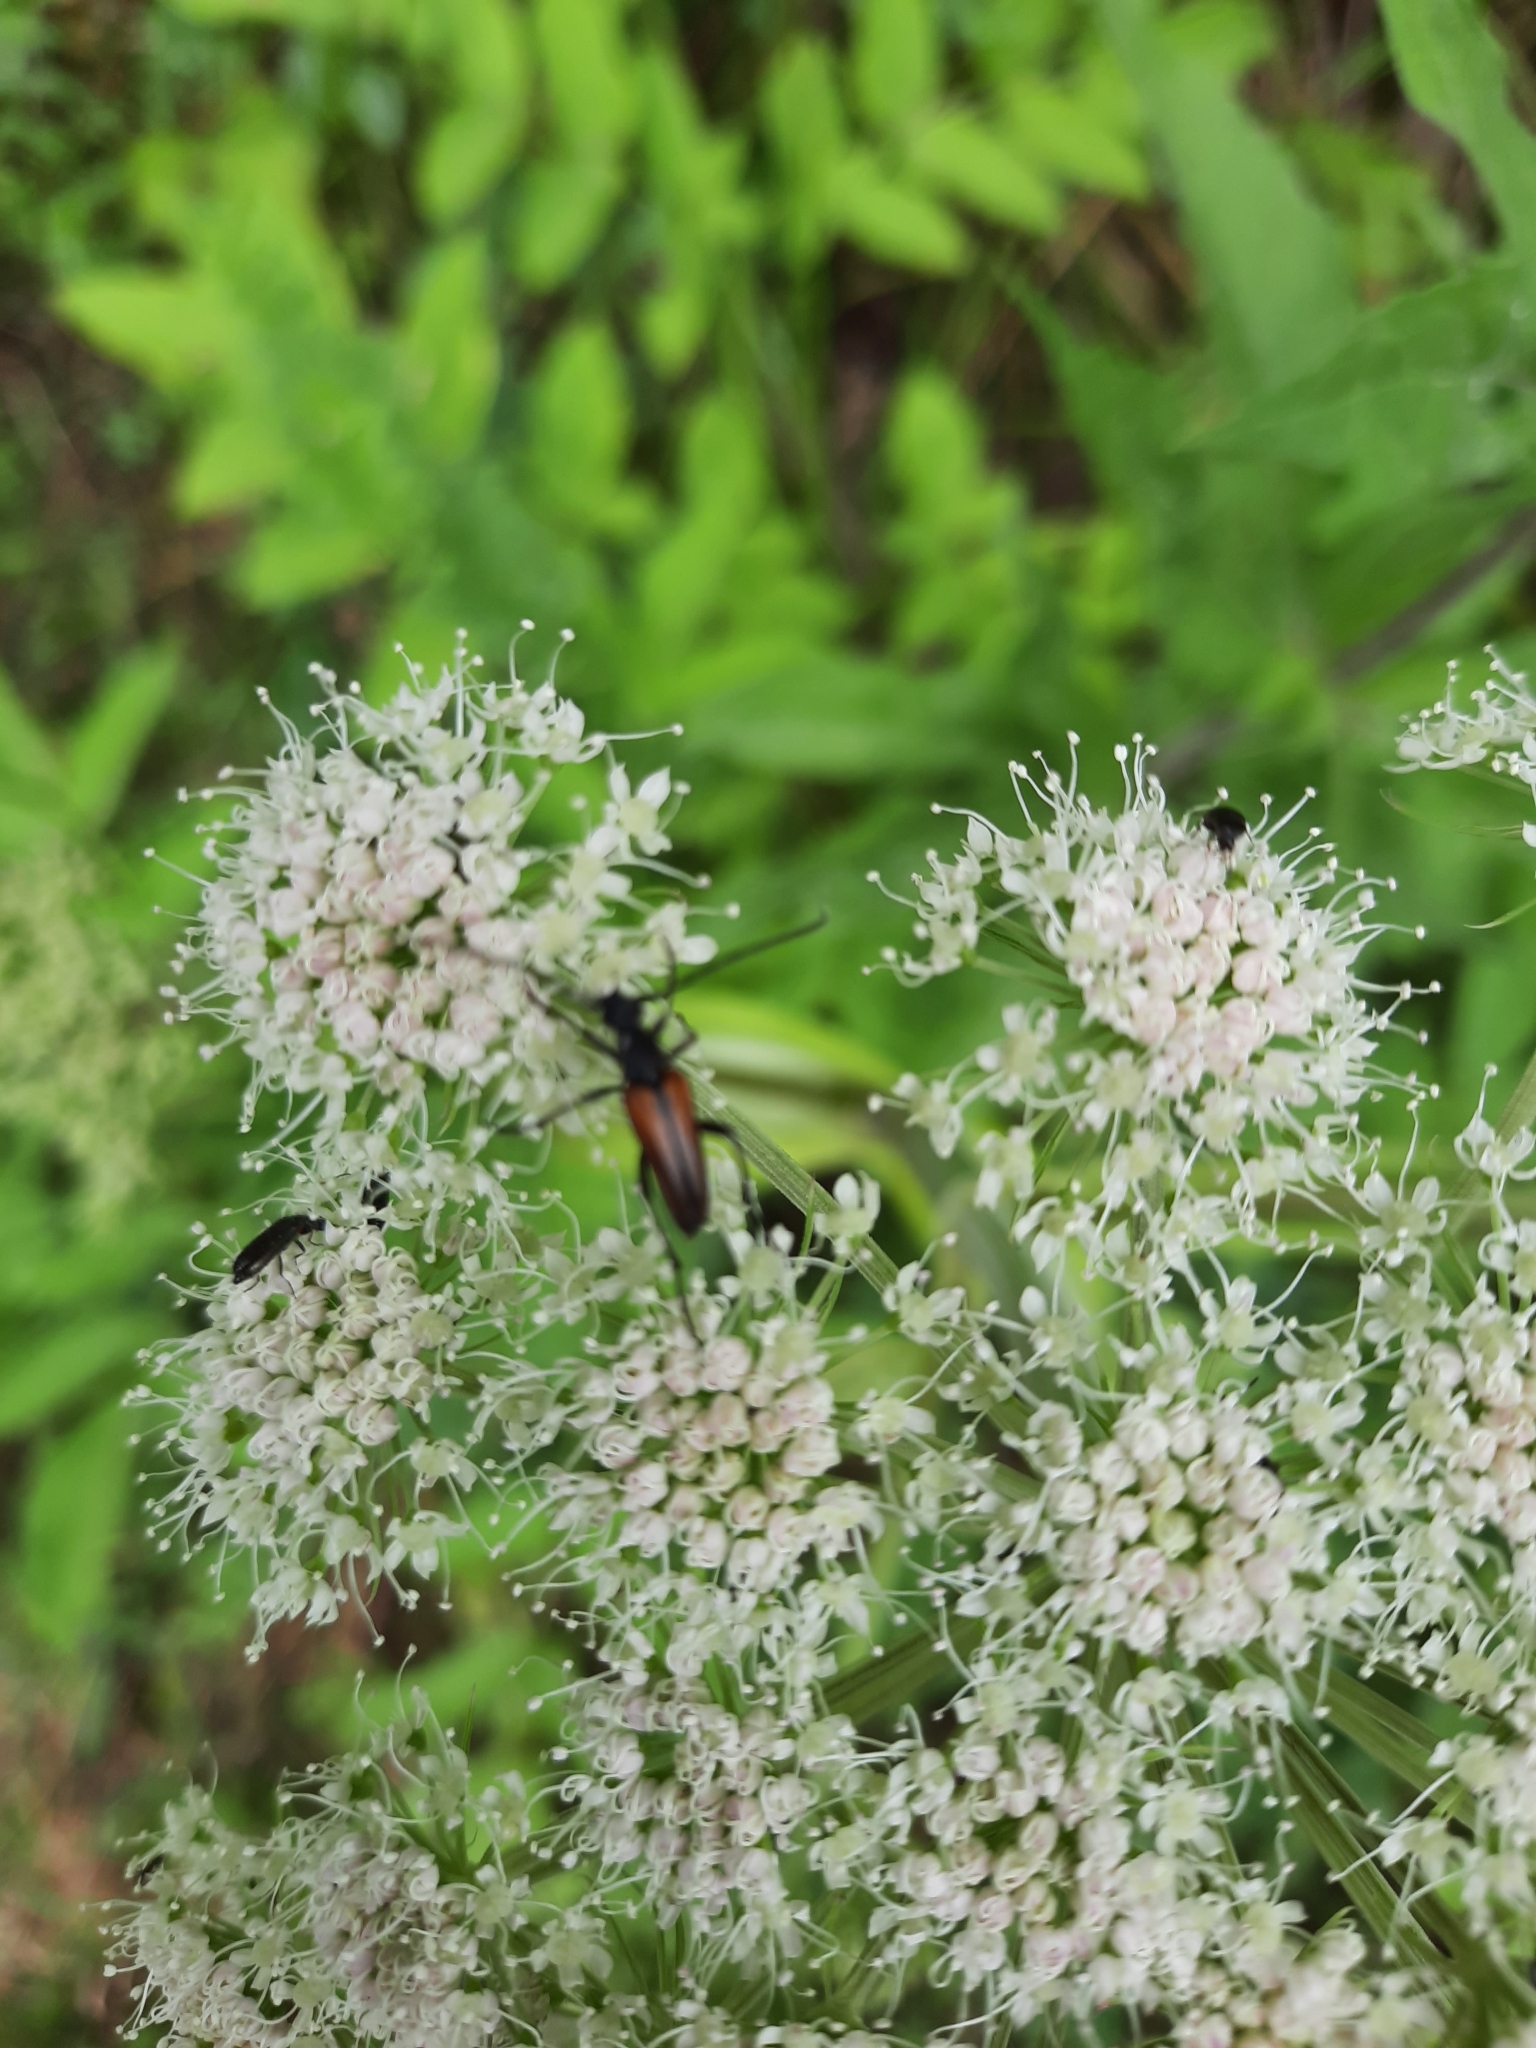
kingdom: Animalia
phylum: Arthropoda
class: Insecta
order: Coleoptera
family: Cerambycidae
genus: Stenurella
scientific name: Stenurella melanura
